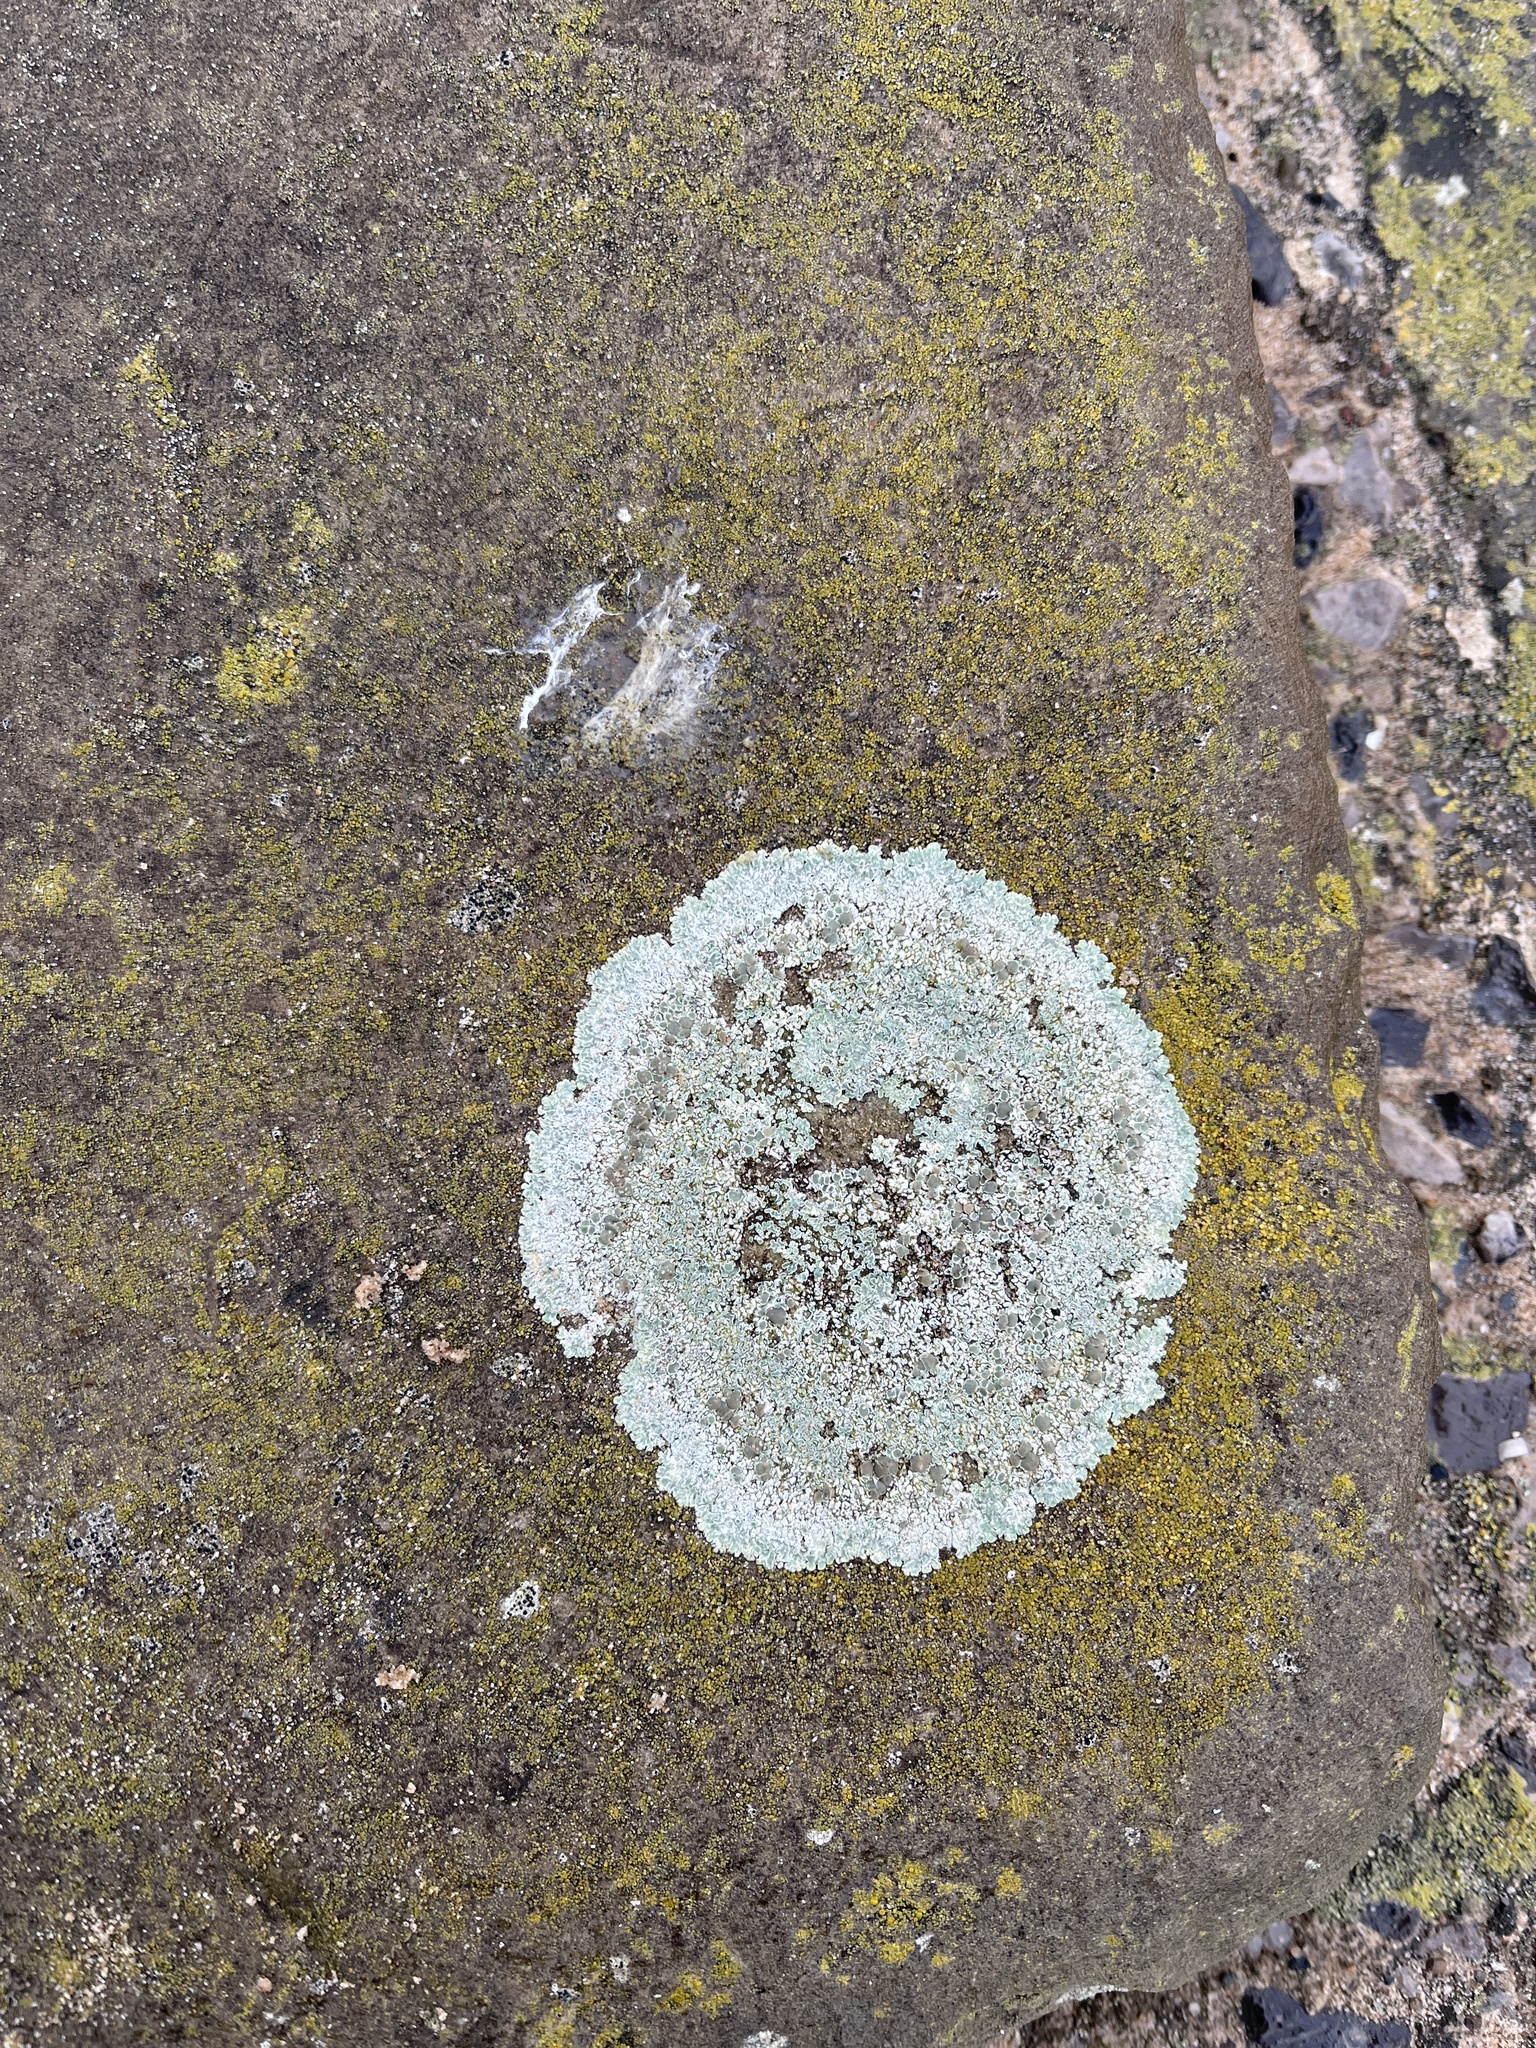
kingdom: Fungi
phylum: Ascomycota
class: Lecanoromycetes
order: Lecanorales
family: Lecanoraceae
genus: Protoparmeliopsis
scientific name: Protoparmeliopsis muralis
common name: Stonewall rim lichen
